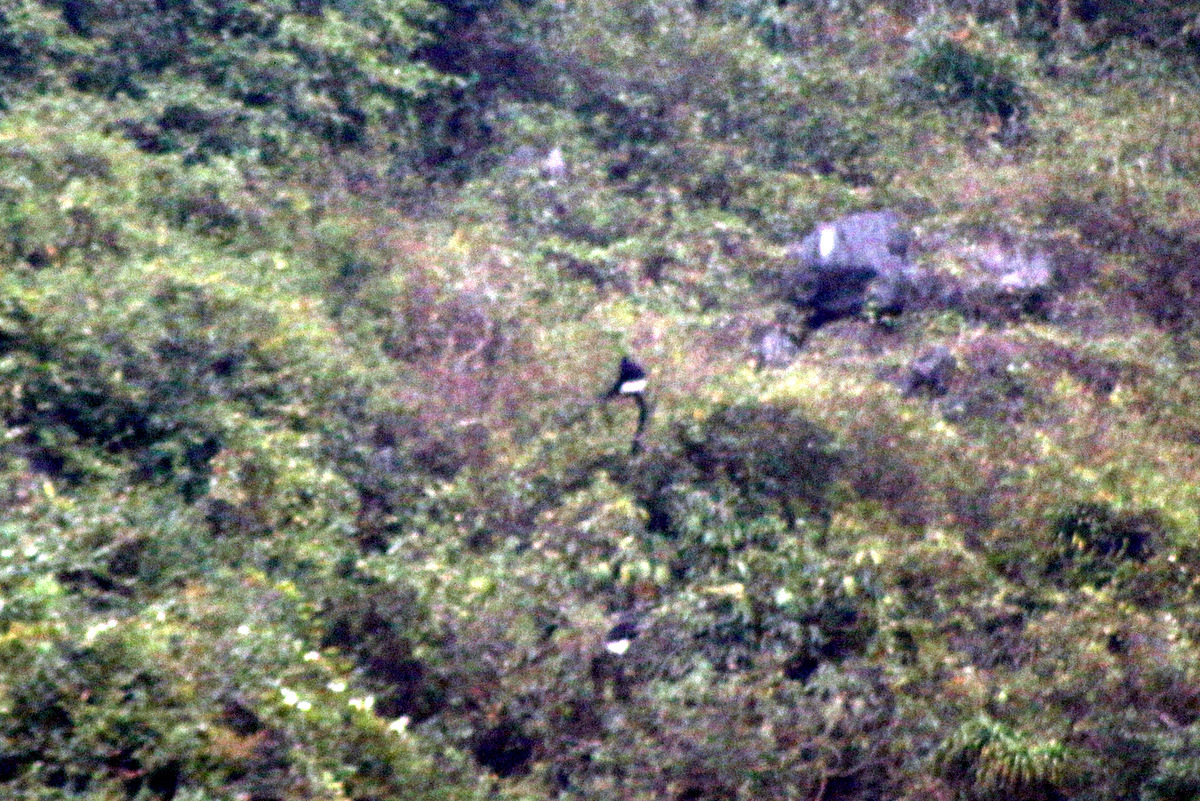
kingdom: Animalia
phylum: Chordata
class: Mammalia
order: Primates
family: Cercopithecidae
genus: Trachypithecus
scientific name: Trachypithecus delacouri
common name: Delacour's langur
